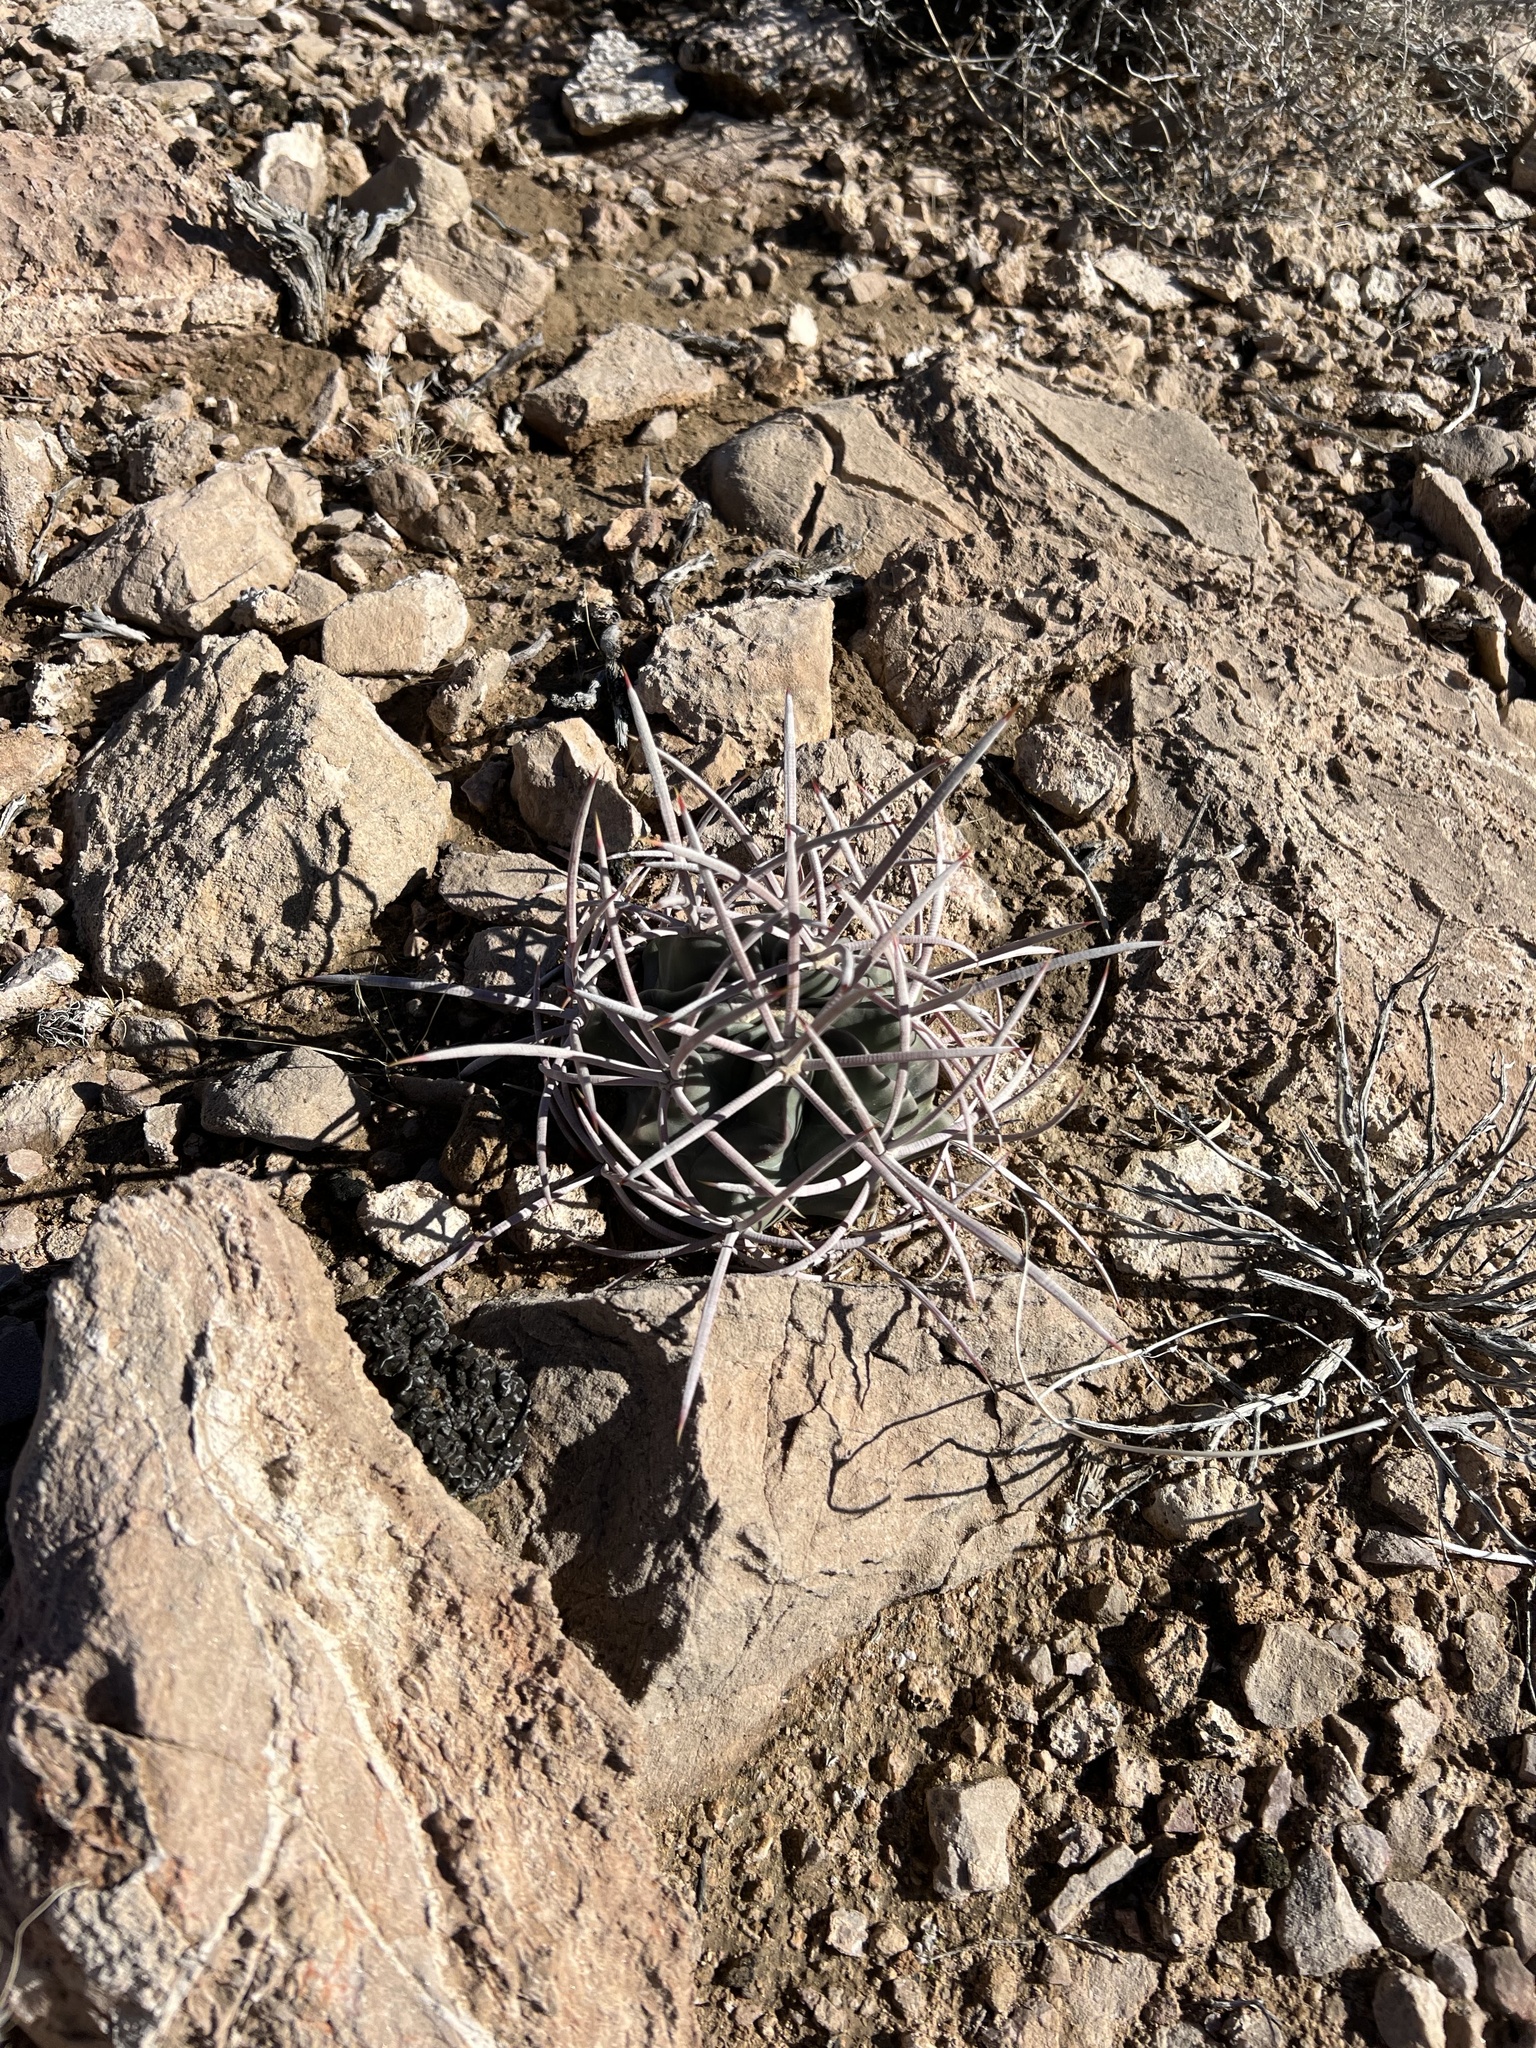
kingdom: Plantae
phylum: Tracheophyta
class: Magnoliopsida
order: Caryophyllales
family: Cactaceae
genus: Echinocactus
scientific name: Echinocactus polycephalus
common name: Cottontop cactus
